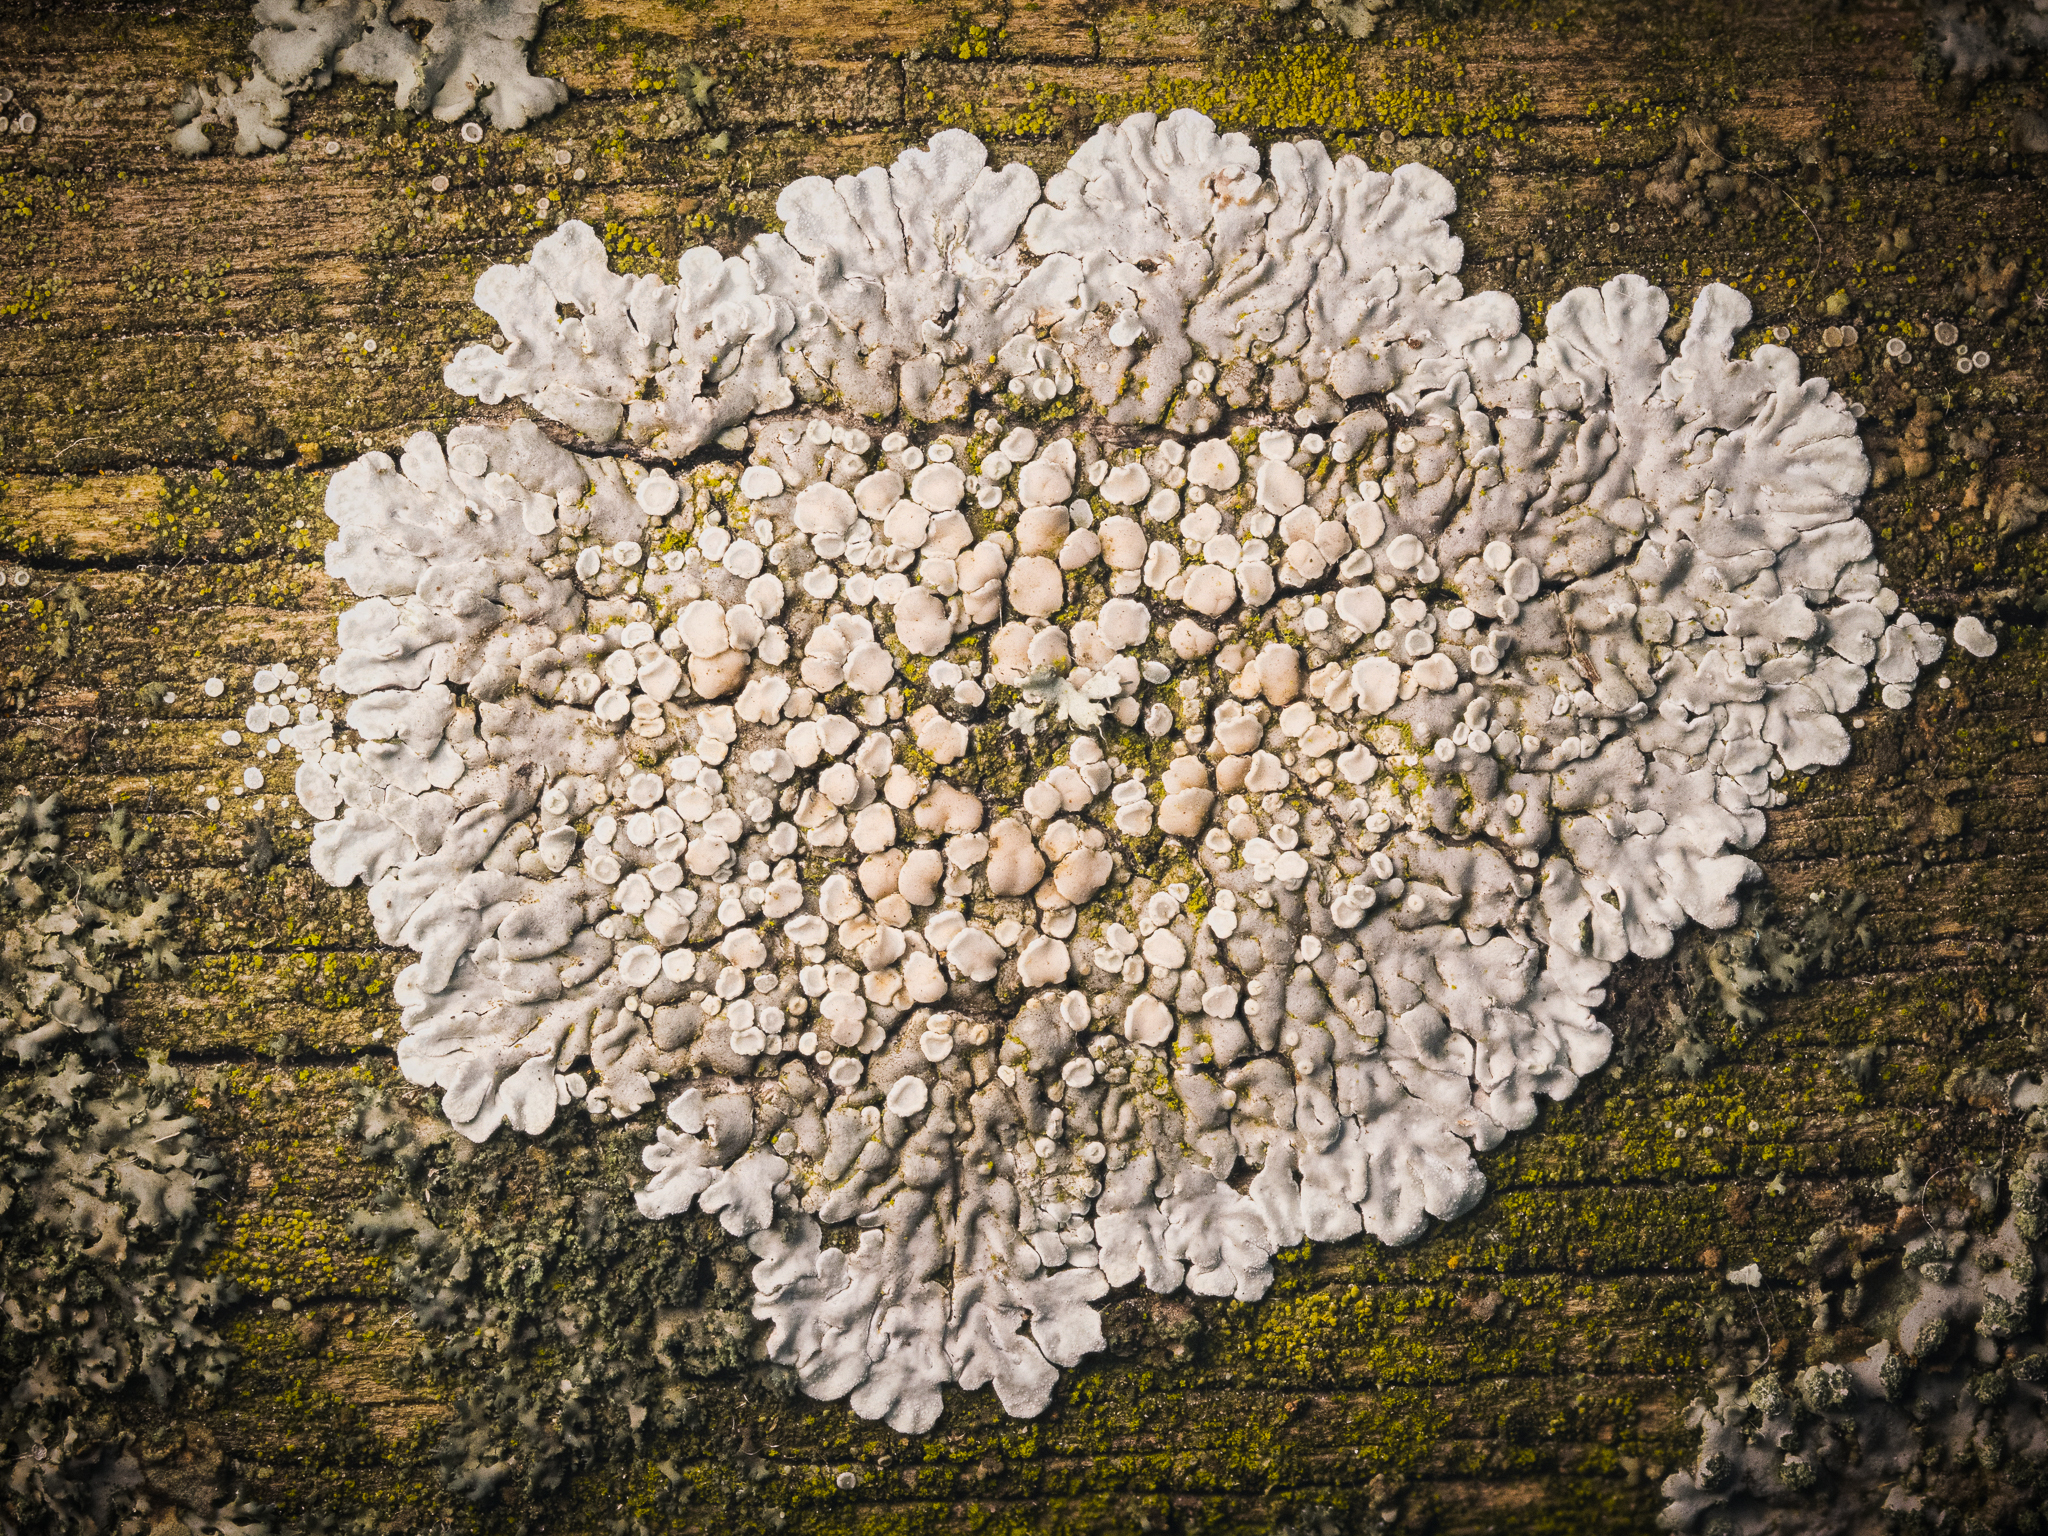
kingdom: Fungi
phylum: Ascomycota
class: Lecanoromycetes
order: Lecanorales
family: Lecanoraceae
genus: Protoparmeliopsis
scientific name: Protoparmeliopsis muralis
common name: Stonewall rim lichen
